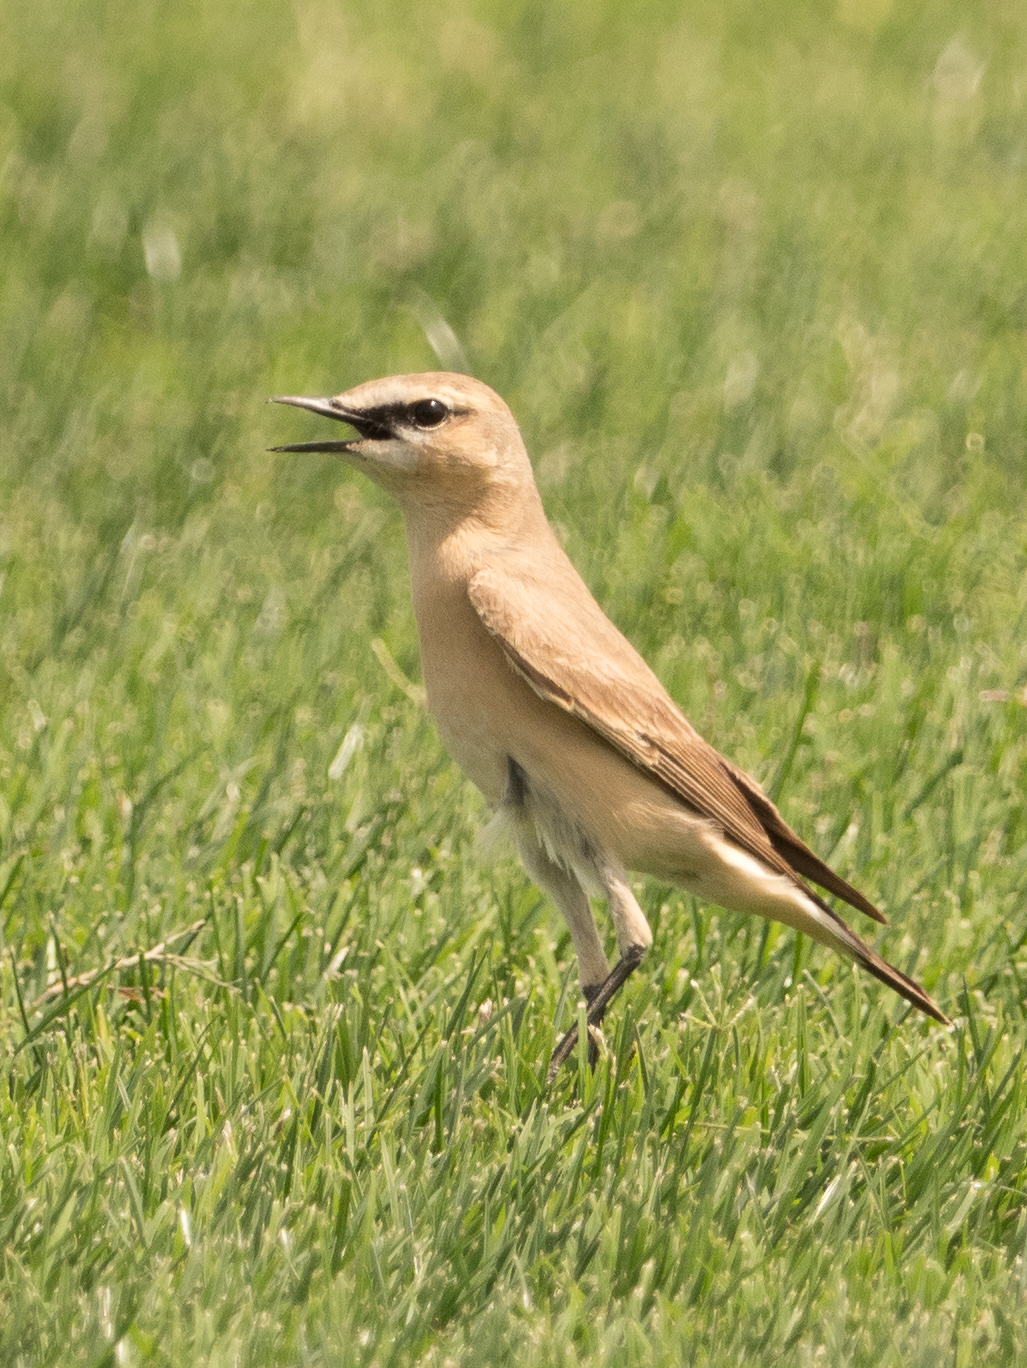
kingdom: Animalia
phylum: Chordata
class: Aves
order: Passeriformes
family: Muscicapidae
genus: Oenanthe
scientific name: Oenanthe isabellina
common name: Isabelline wheatear
